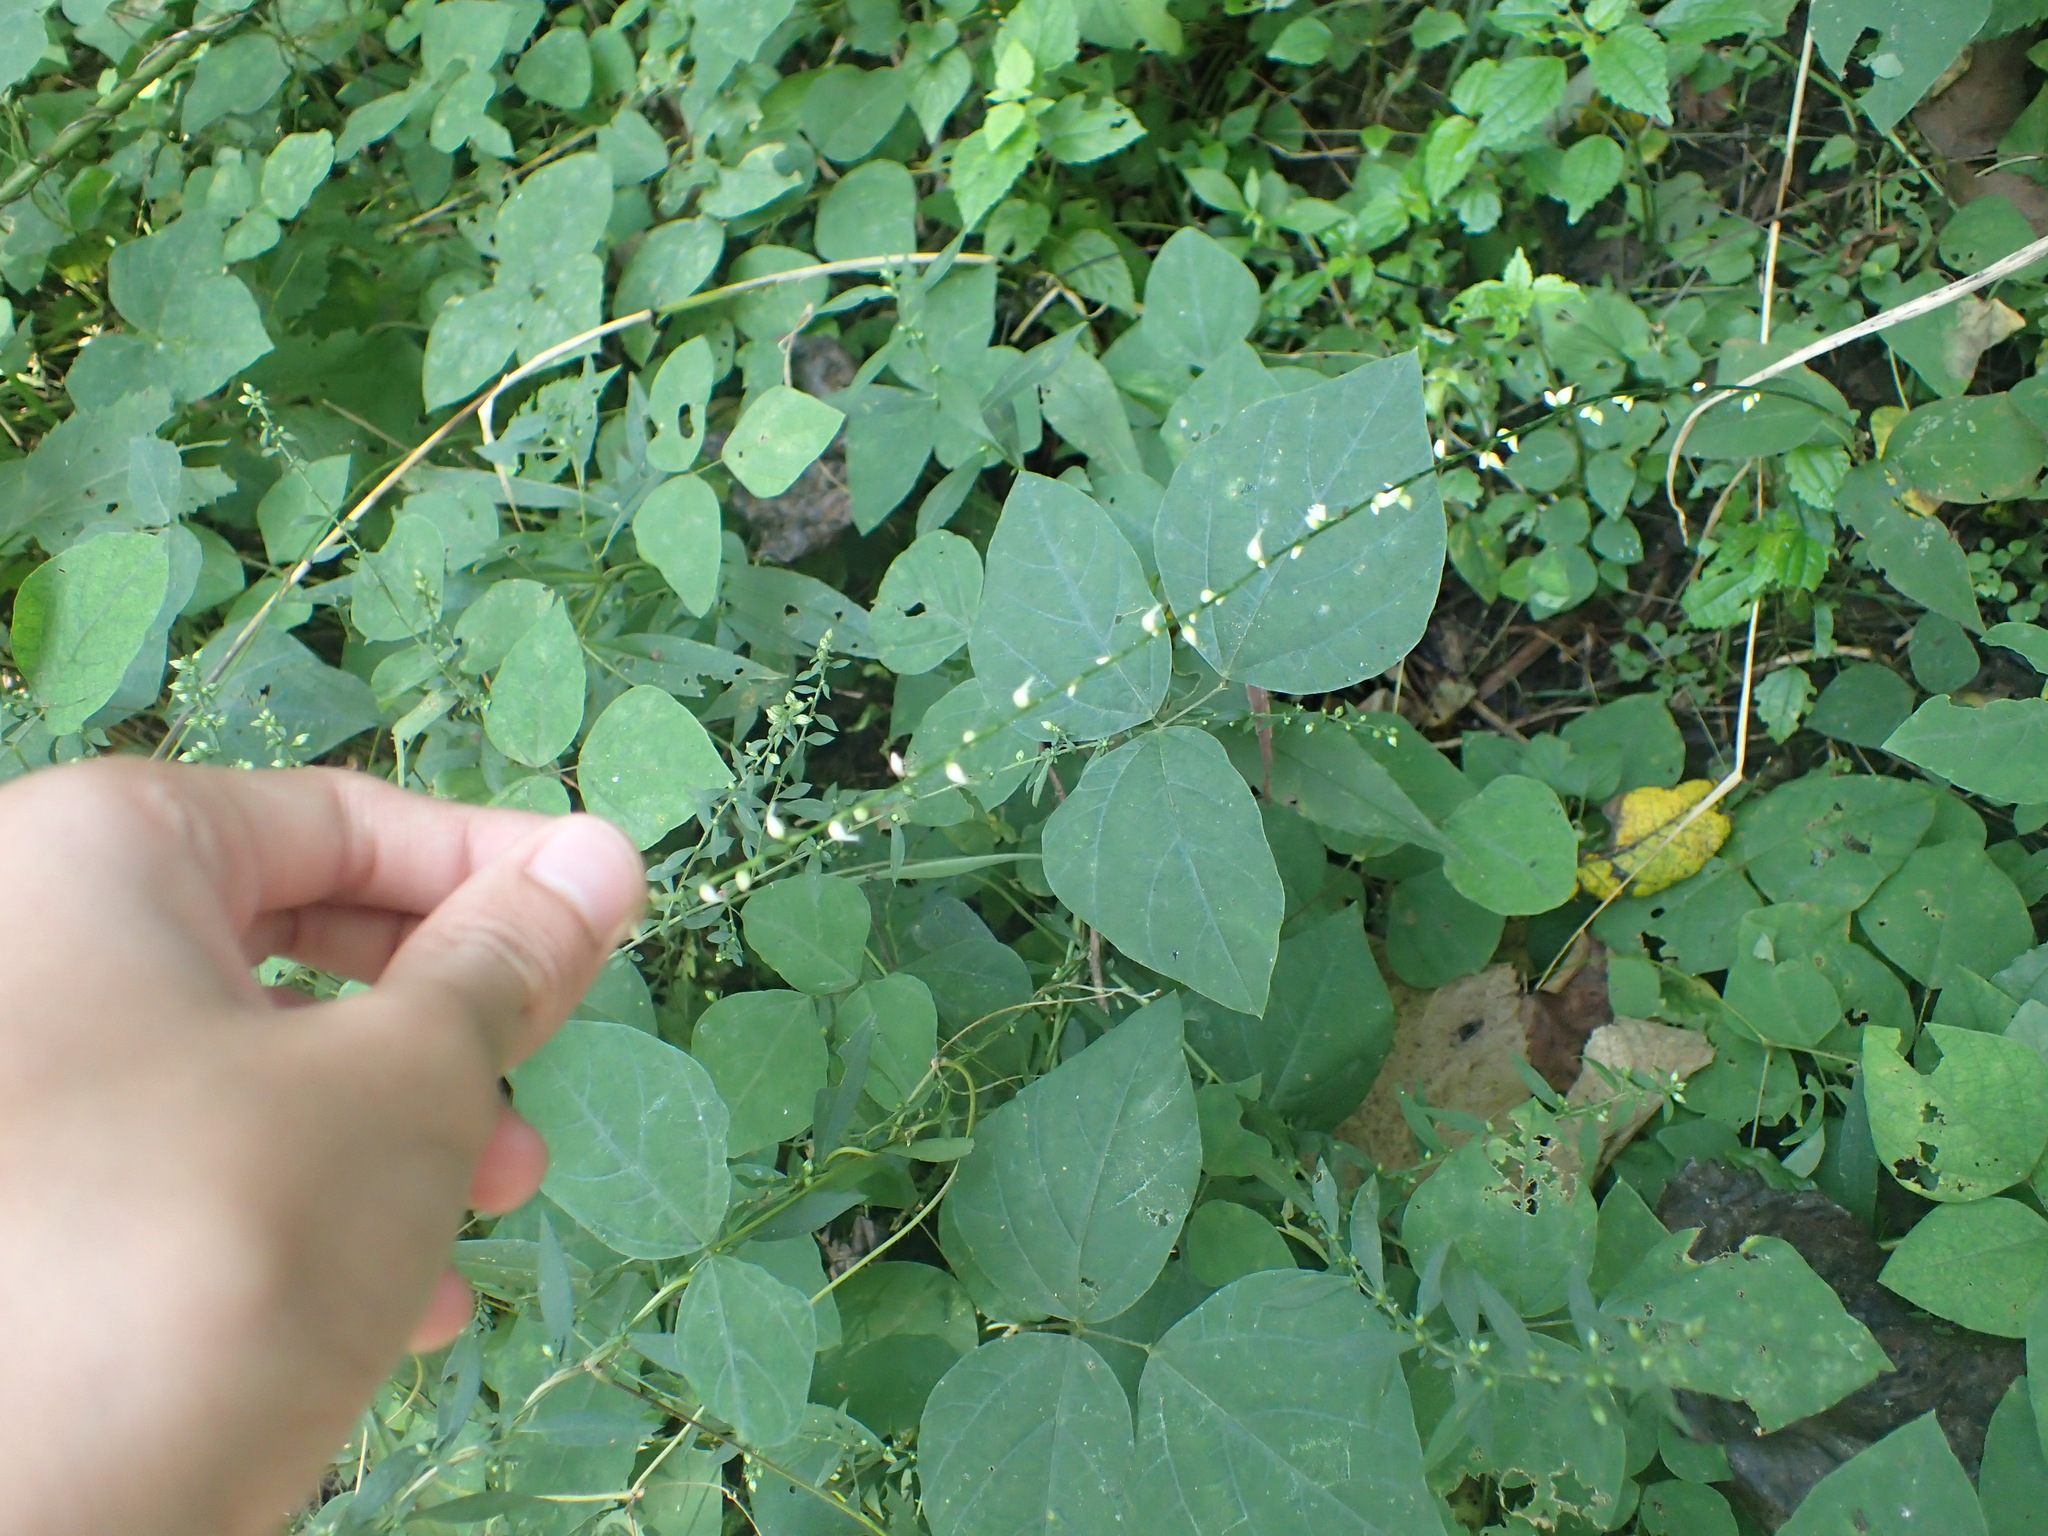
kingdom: Plantae
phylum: Tracheophyta
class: Magnoliopsida
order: Caryophyllales
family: Polygonaceae
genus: Persicaria
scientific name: Persicaria virginiana
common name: Jumpseed
